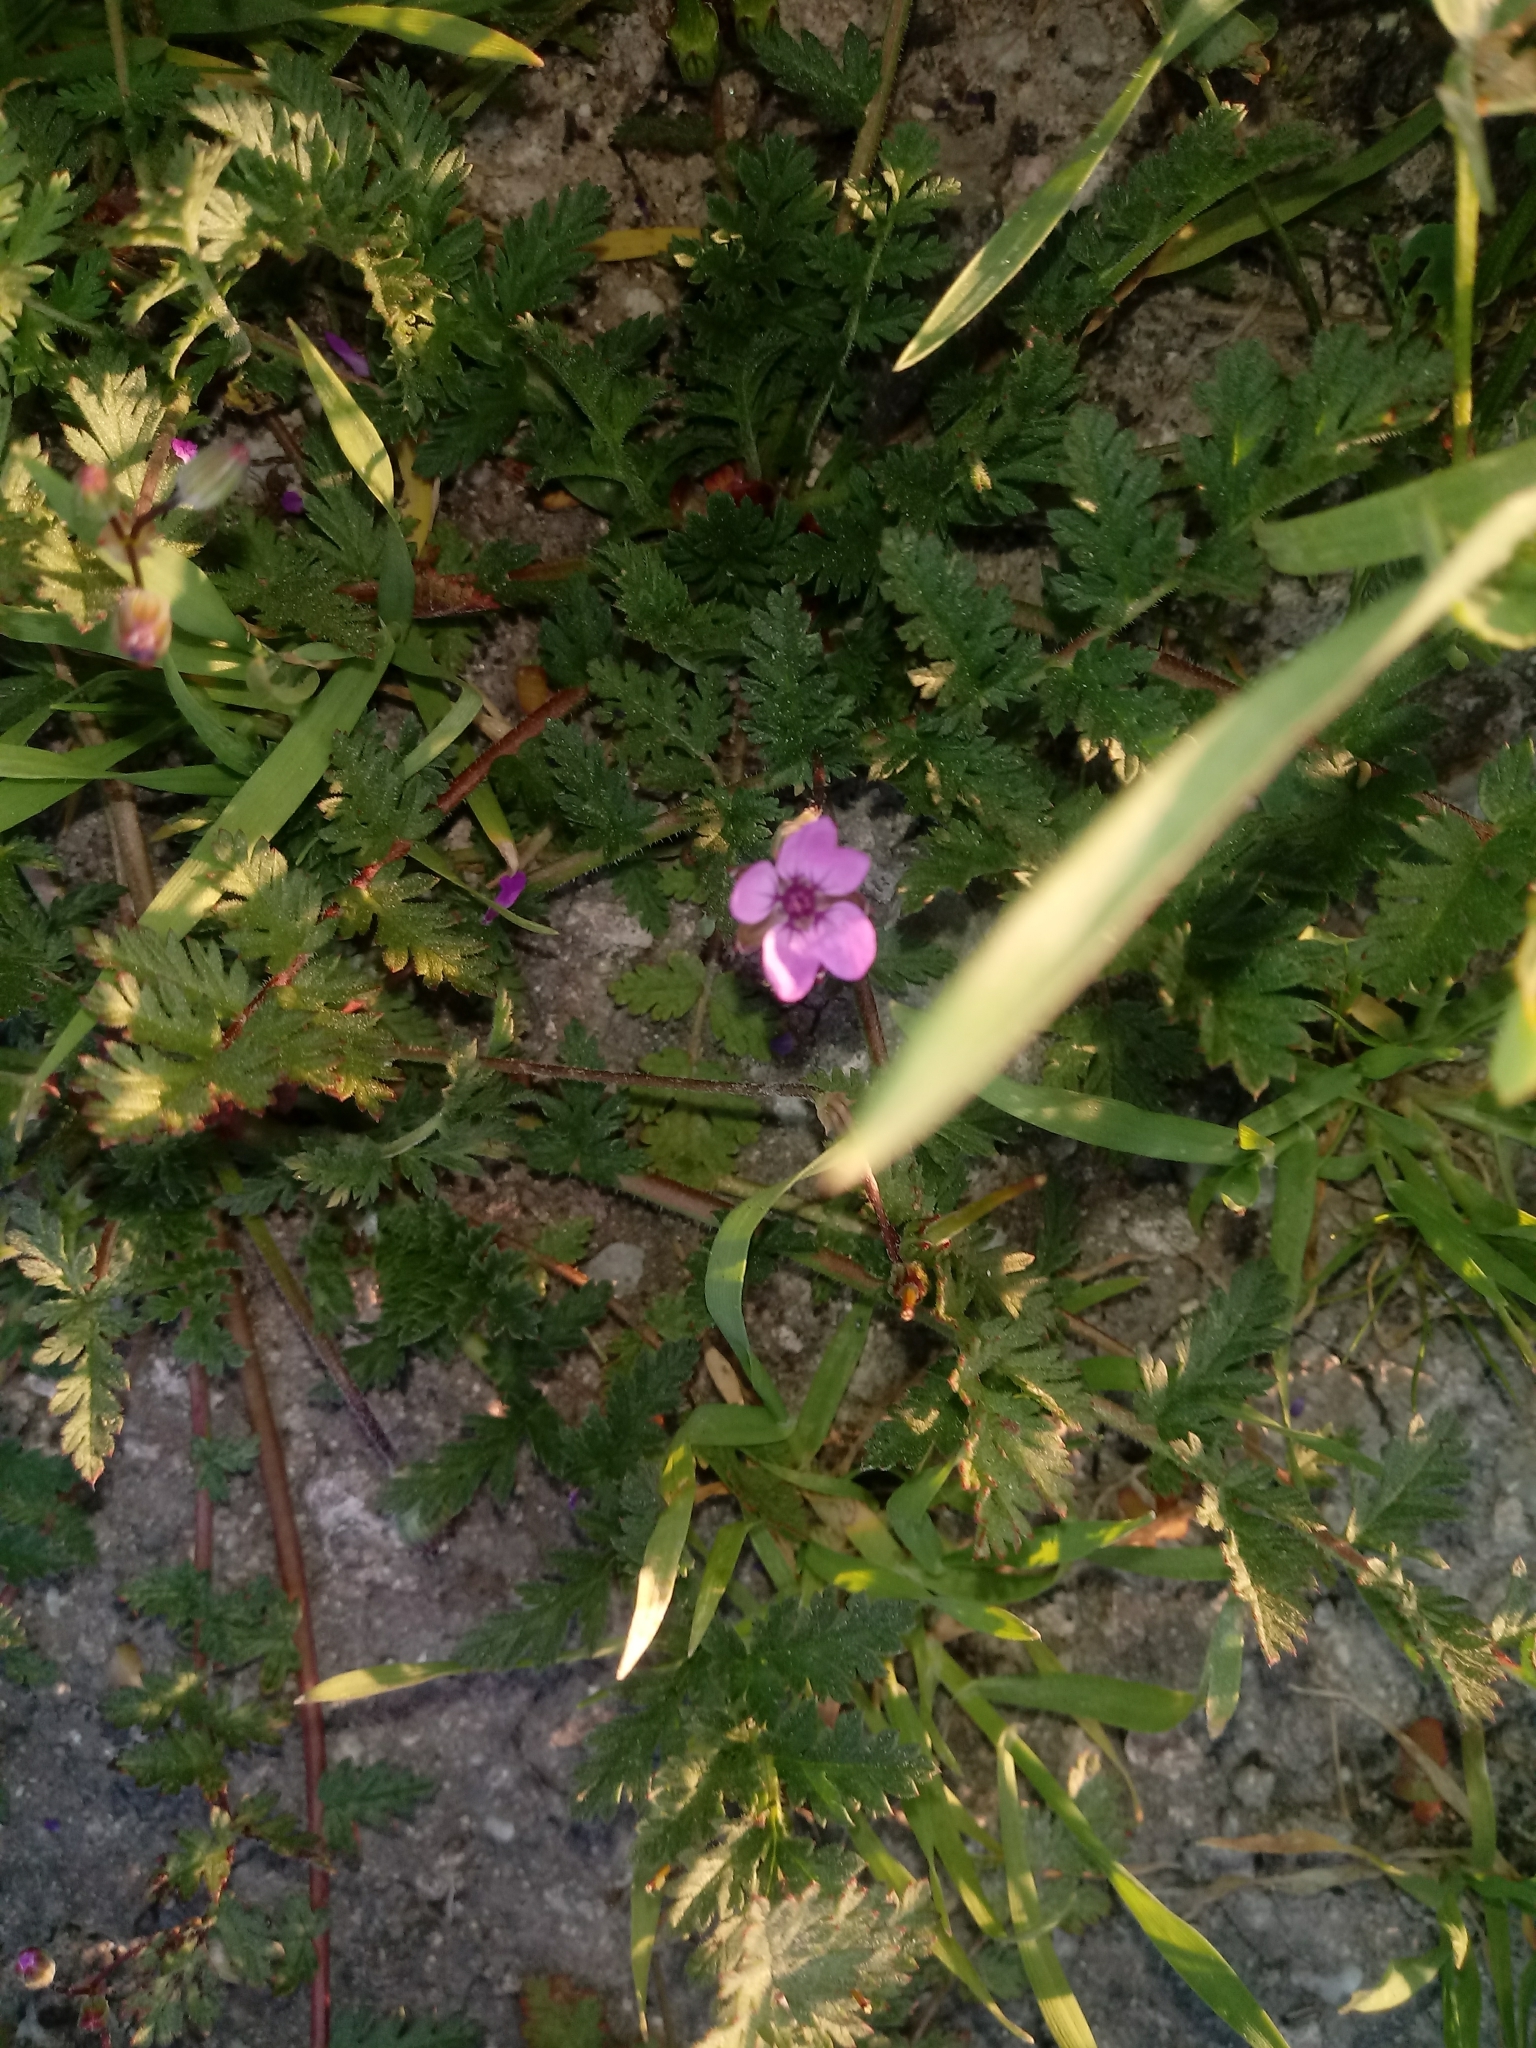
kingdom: Plantae
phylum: Tracheophyta
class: Magnoliopsida
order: Geraniales
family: Geraniaceae
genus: Erodium
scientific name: Erodium cicutarium
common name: Common stork's-bill
